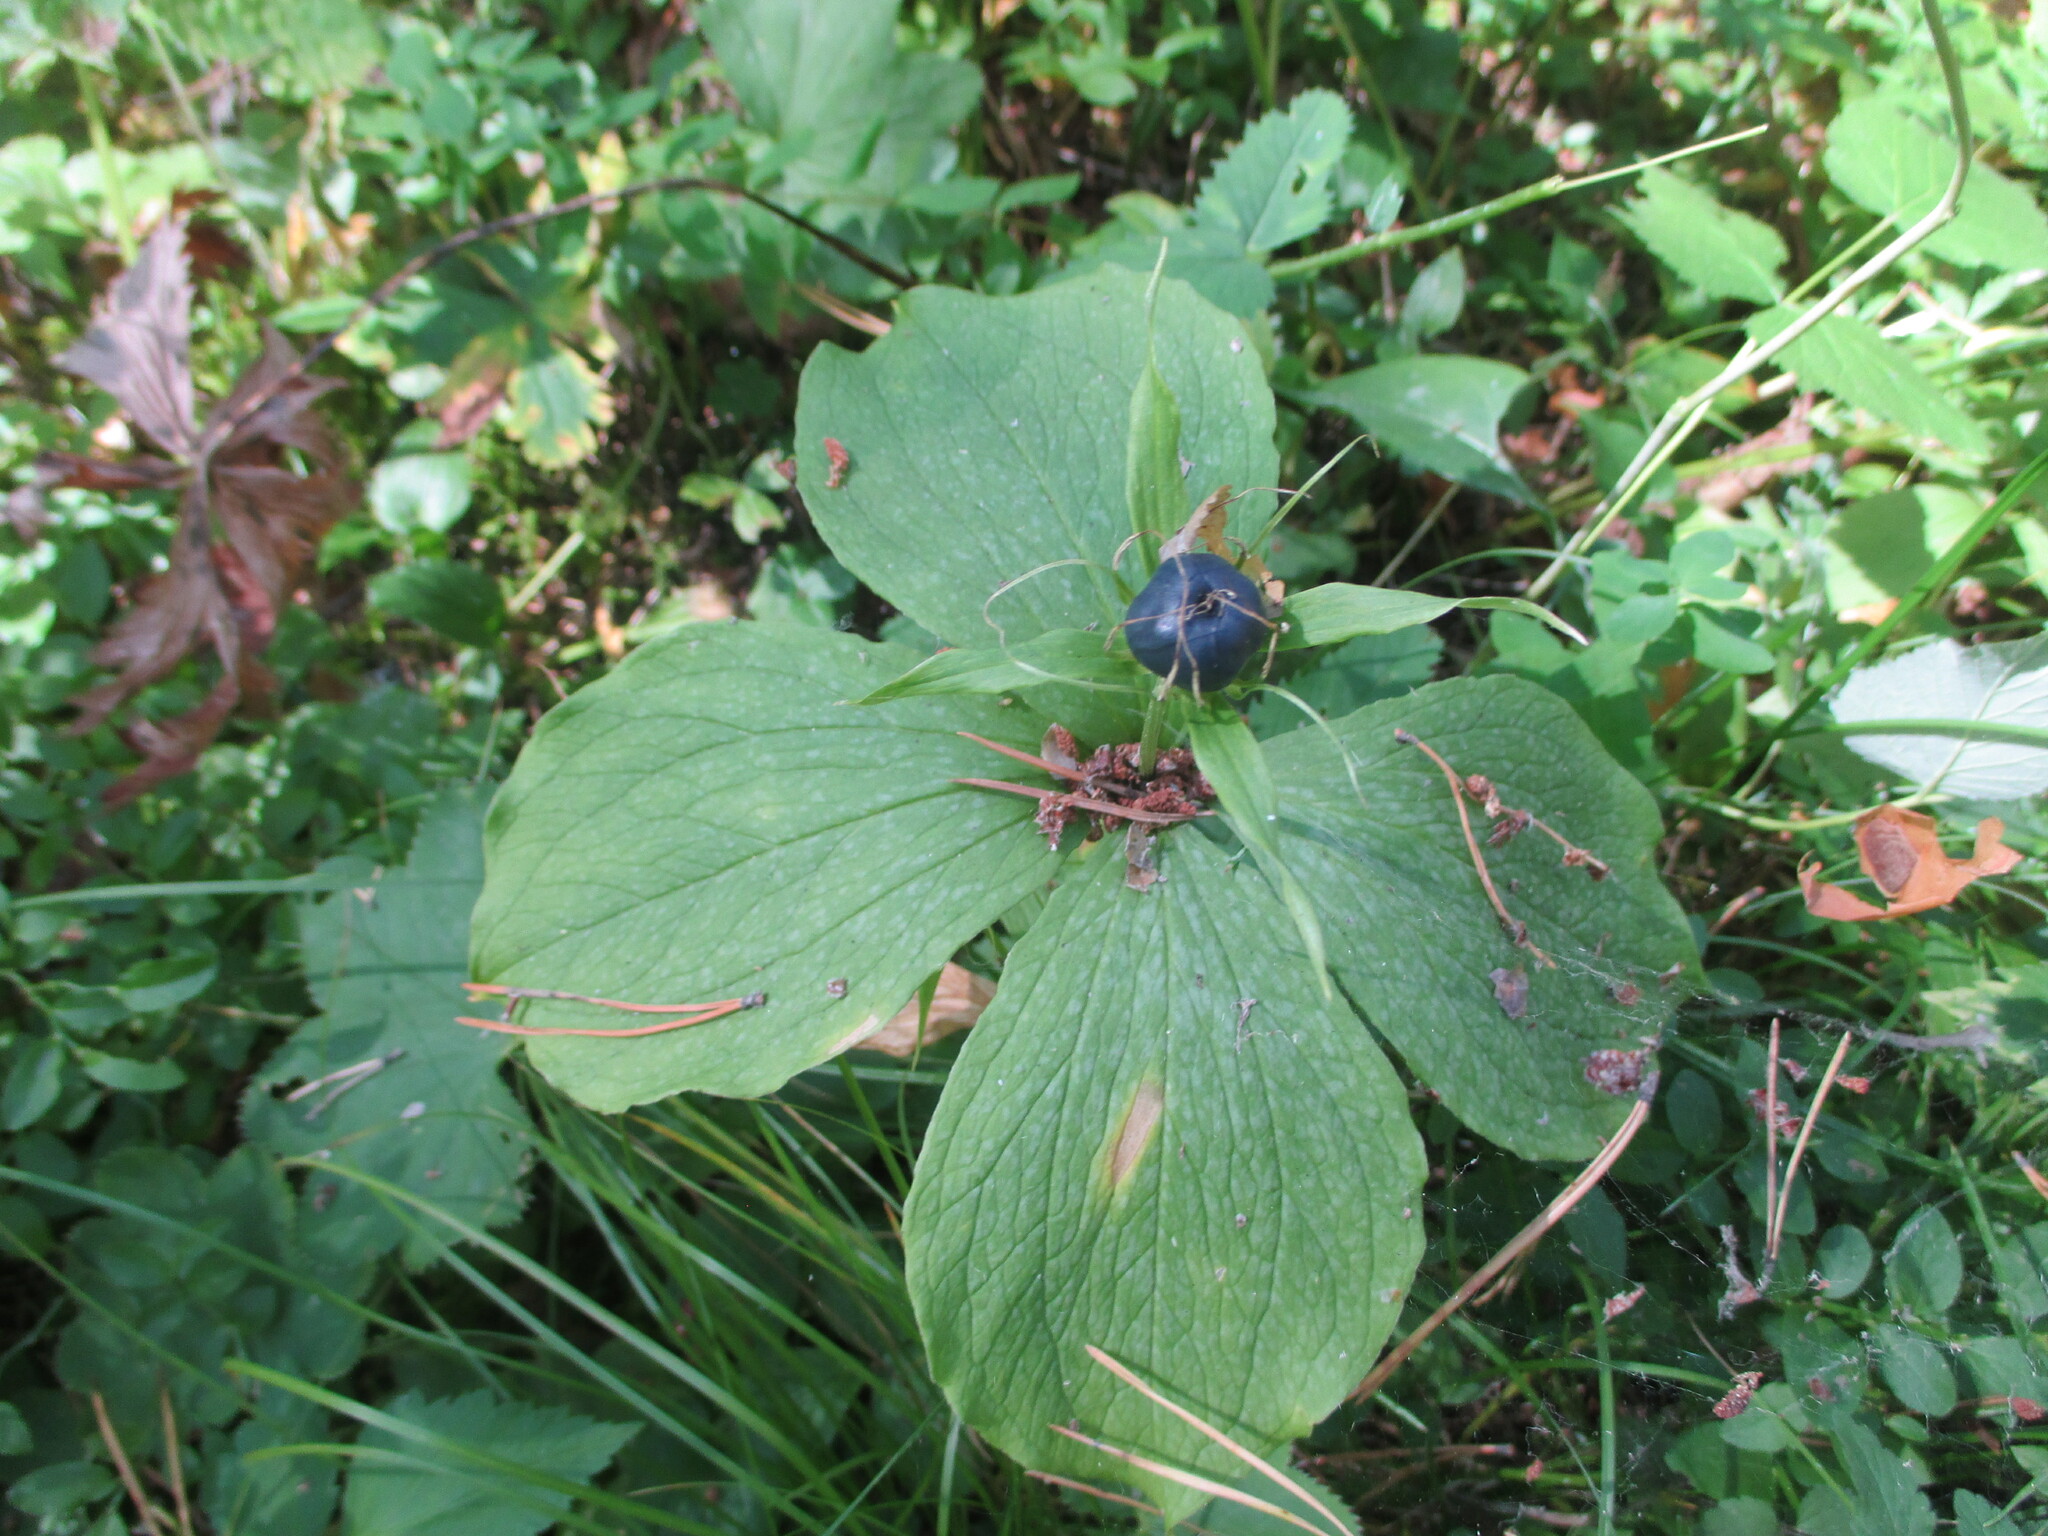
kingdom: Plantae
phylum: Tracheophyta
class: Liliopsida
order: Liliales
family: Melanthiaceae
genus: Paris
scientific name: Paris quadrifolia
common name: Herb-paris
